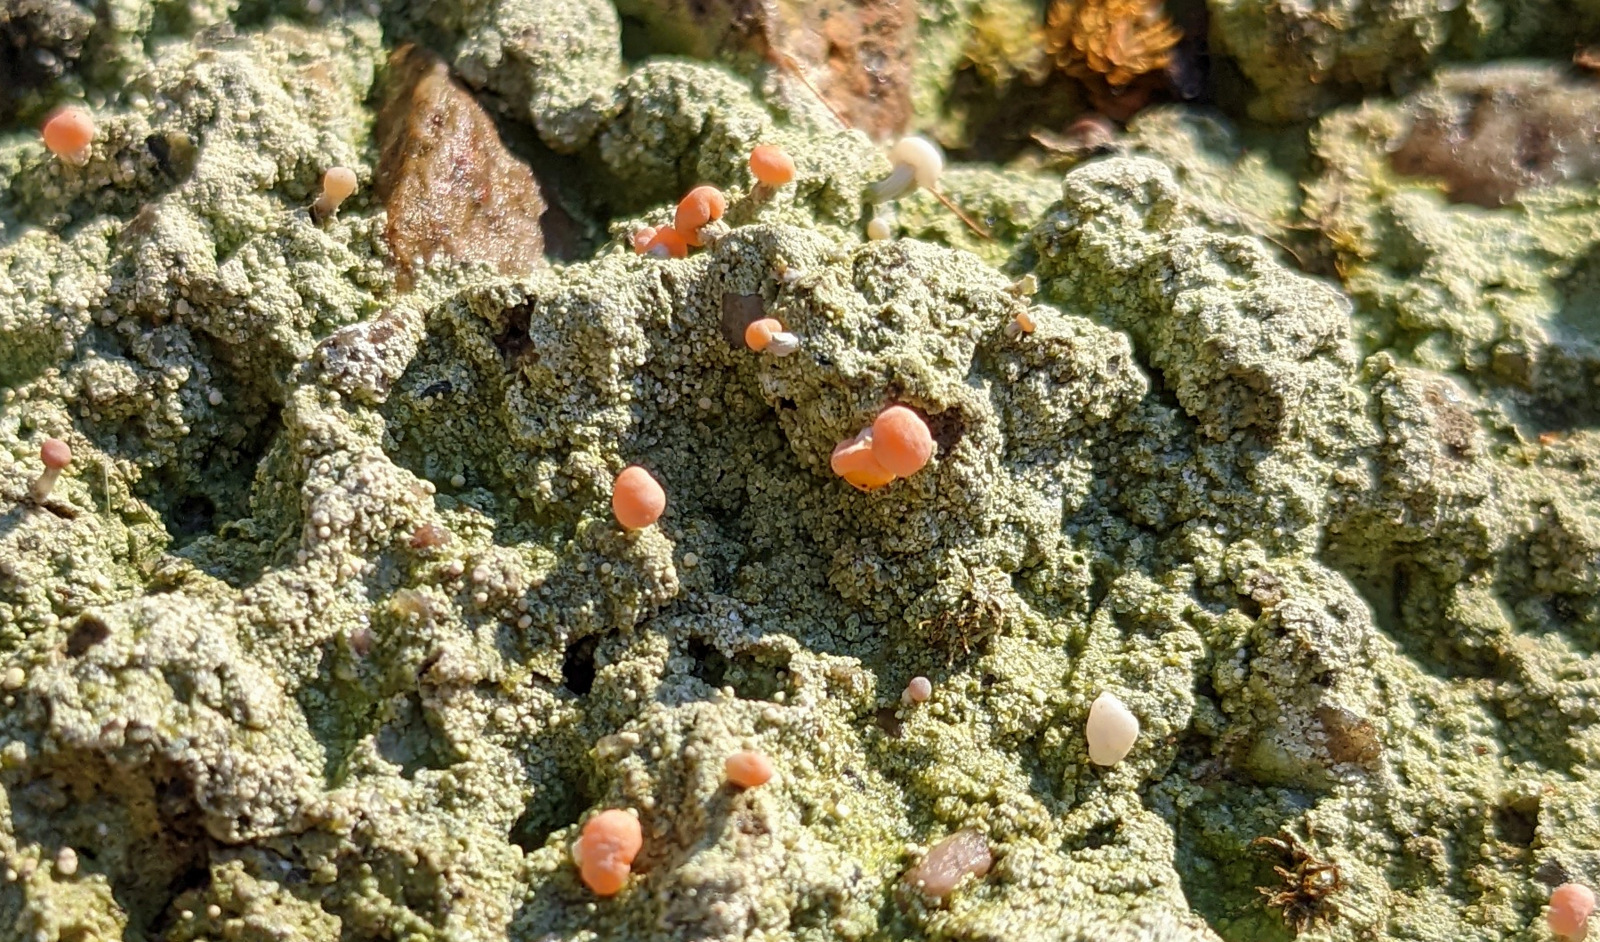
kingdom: Fungi
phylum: Ascomycota
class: Lecanoromycetes
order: Pertusariales
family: Icmadophilaceae
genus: Dibaeis
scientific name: Dibaeis baeomyces
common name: Pink earth lichen
